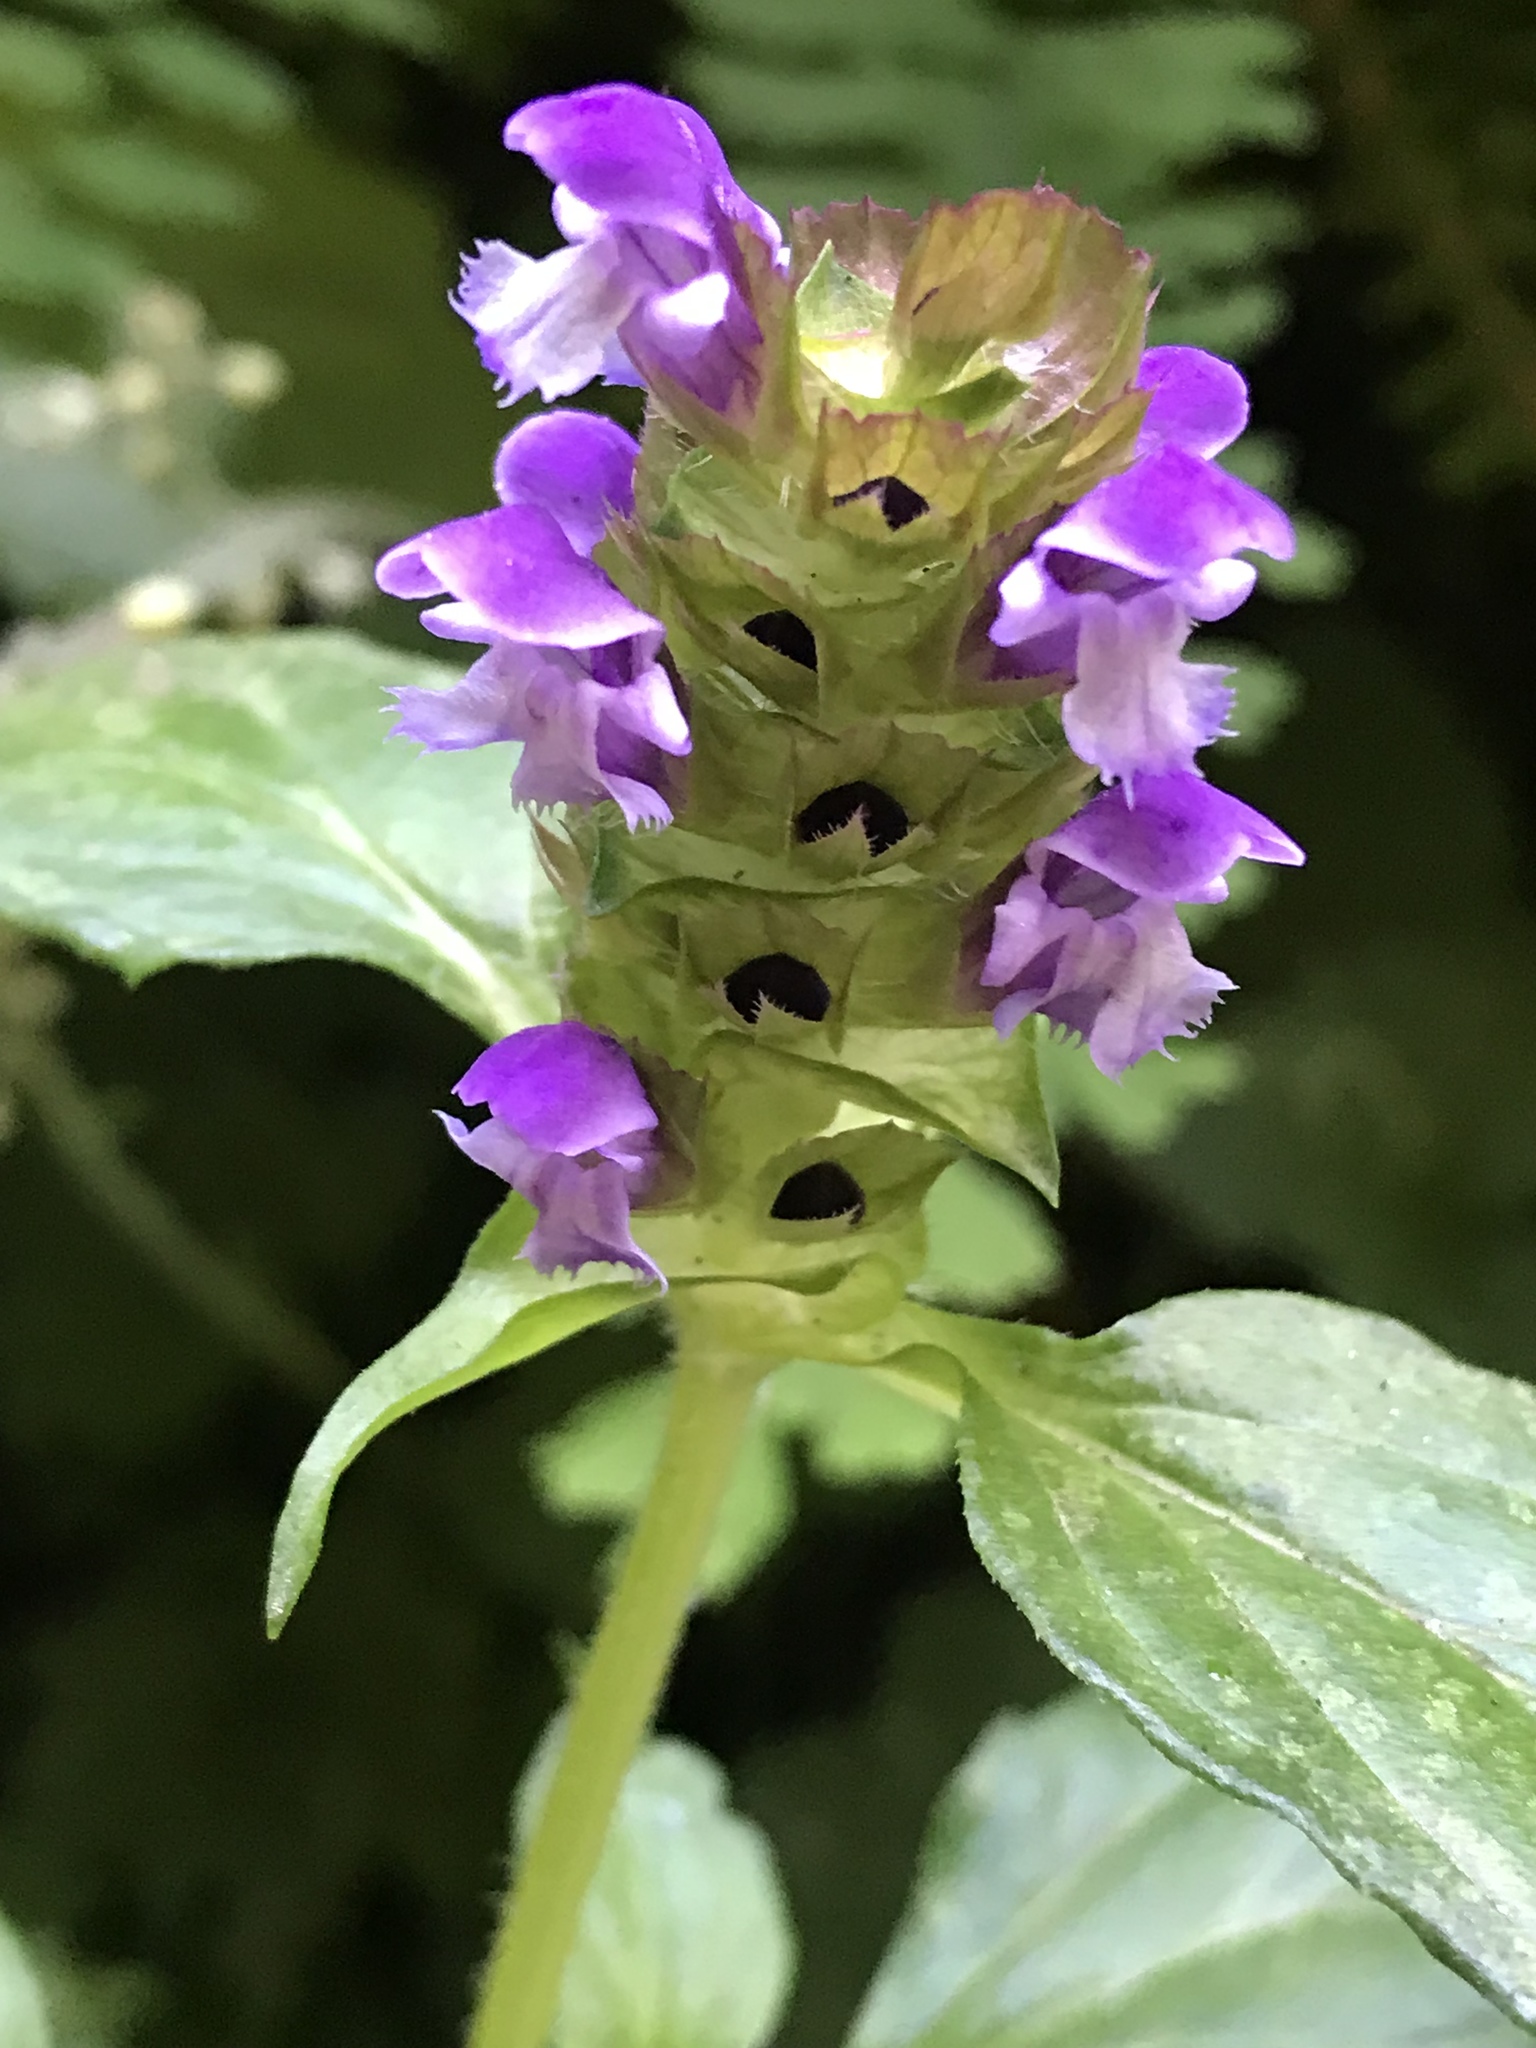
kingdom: Plantae
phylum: Tracheophyta
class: Magnoliopsida
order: Lamiales
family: Lamiaceae
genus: Prunella
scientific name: Prunella vulgaris
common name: Heal-all
